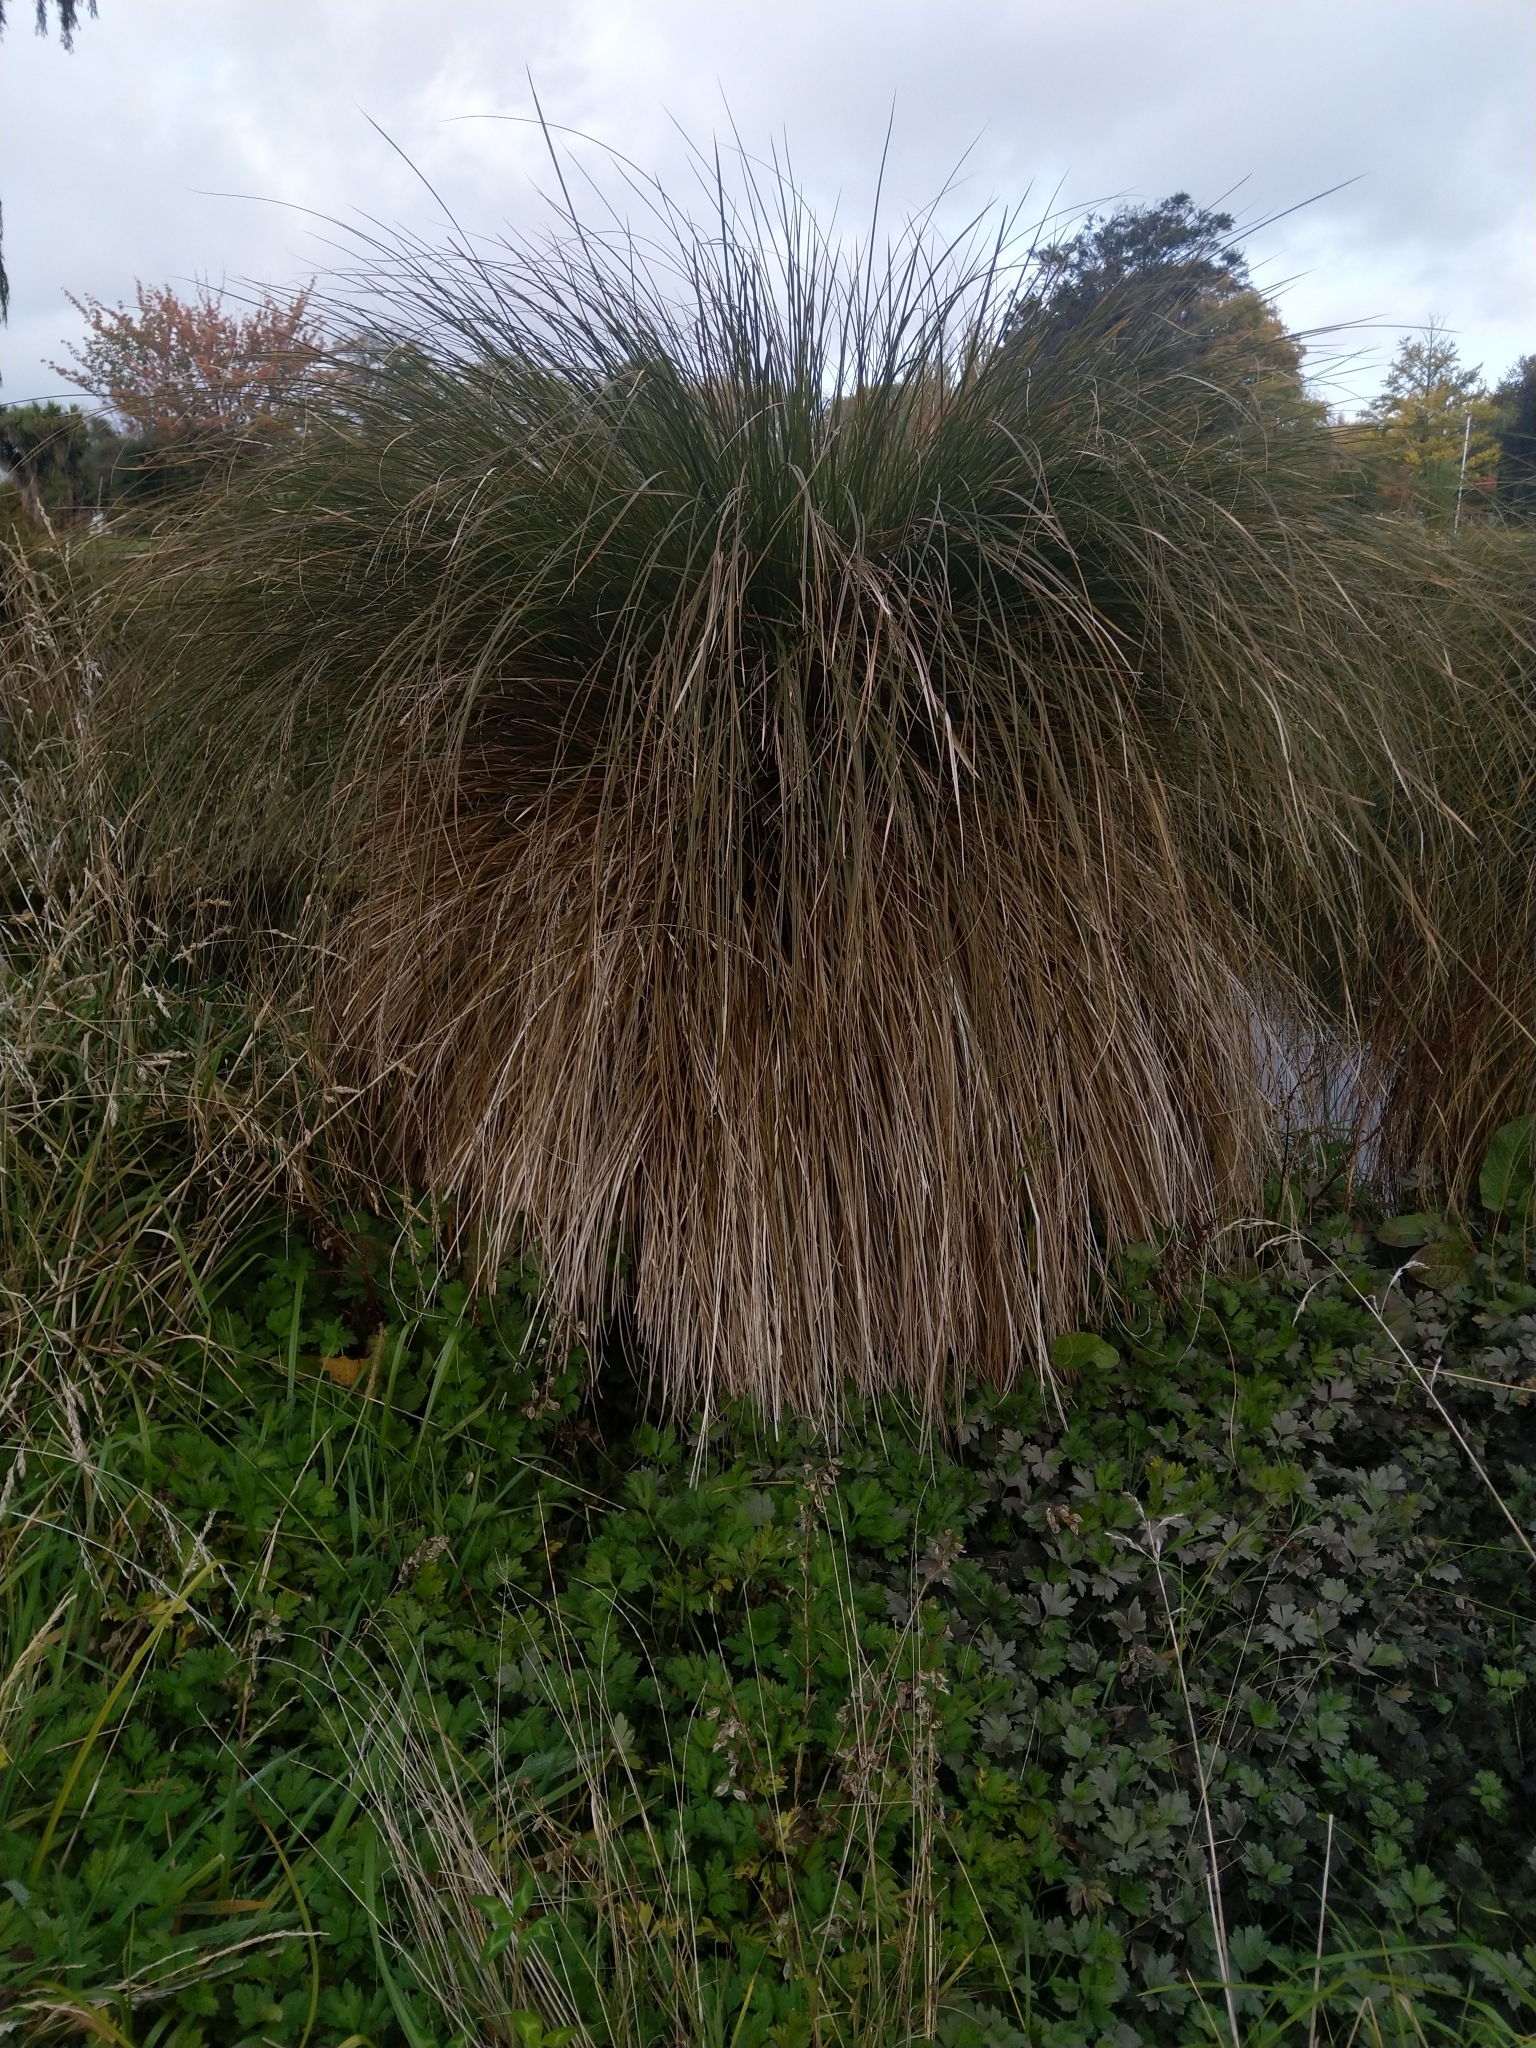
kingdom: Plantae
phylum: Tracheophyta
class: Liliopsida
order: Poales
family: Cyperaceae
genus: Carex
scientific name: Carex secta
